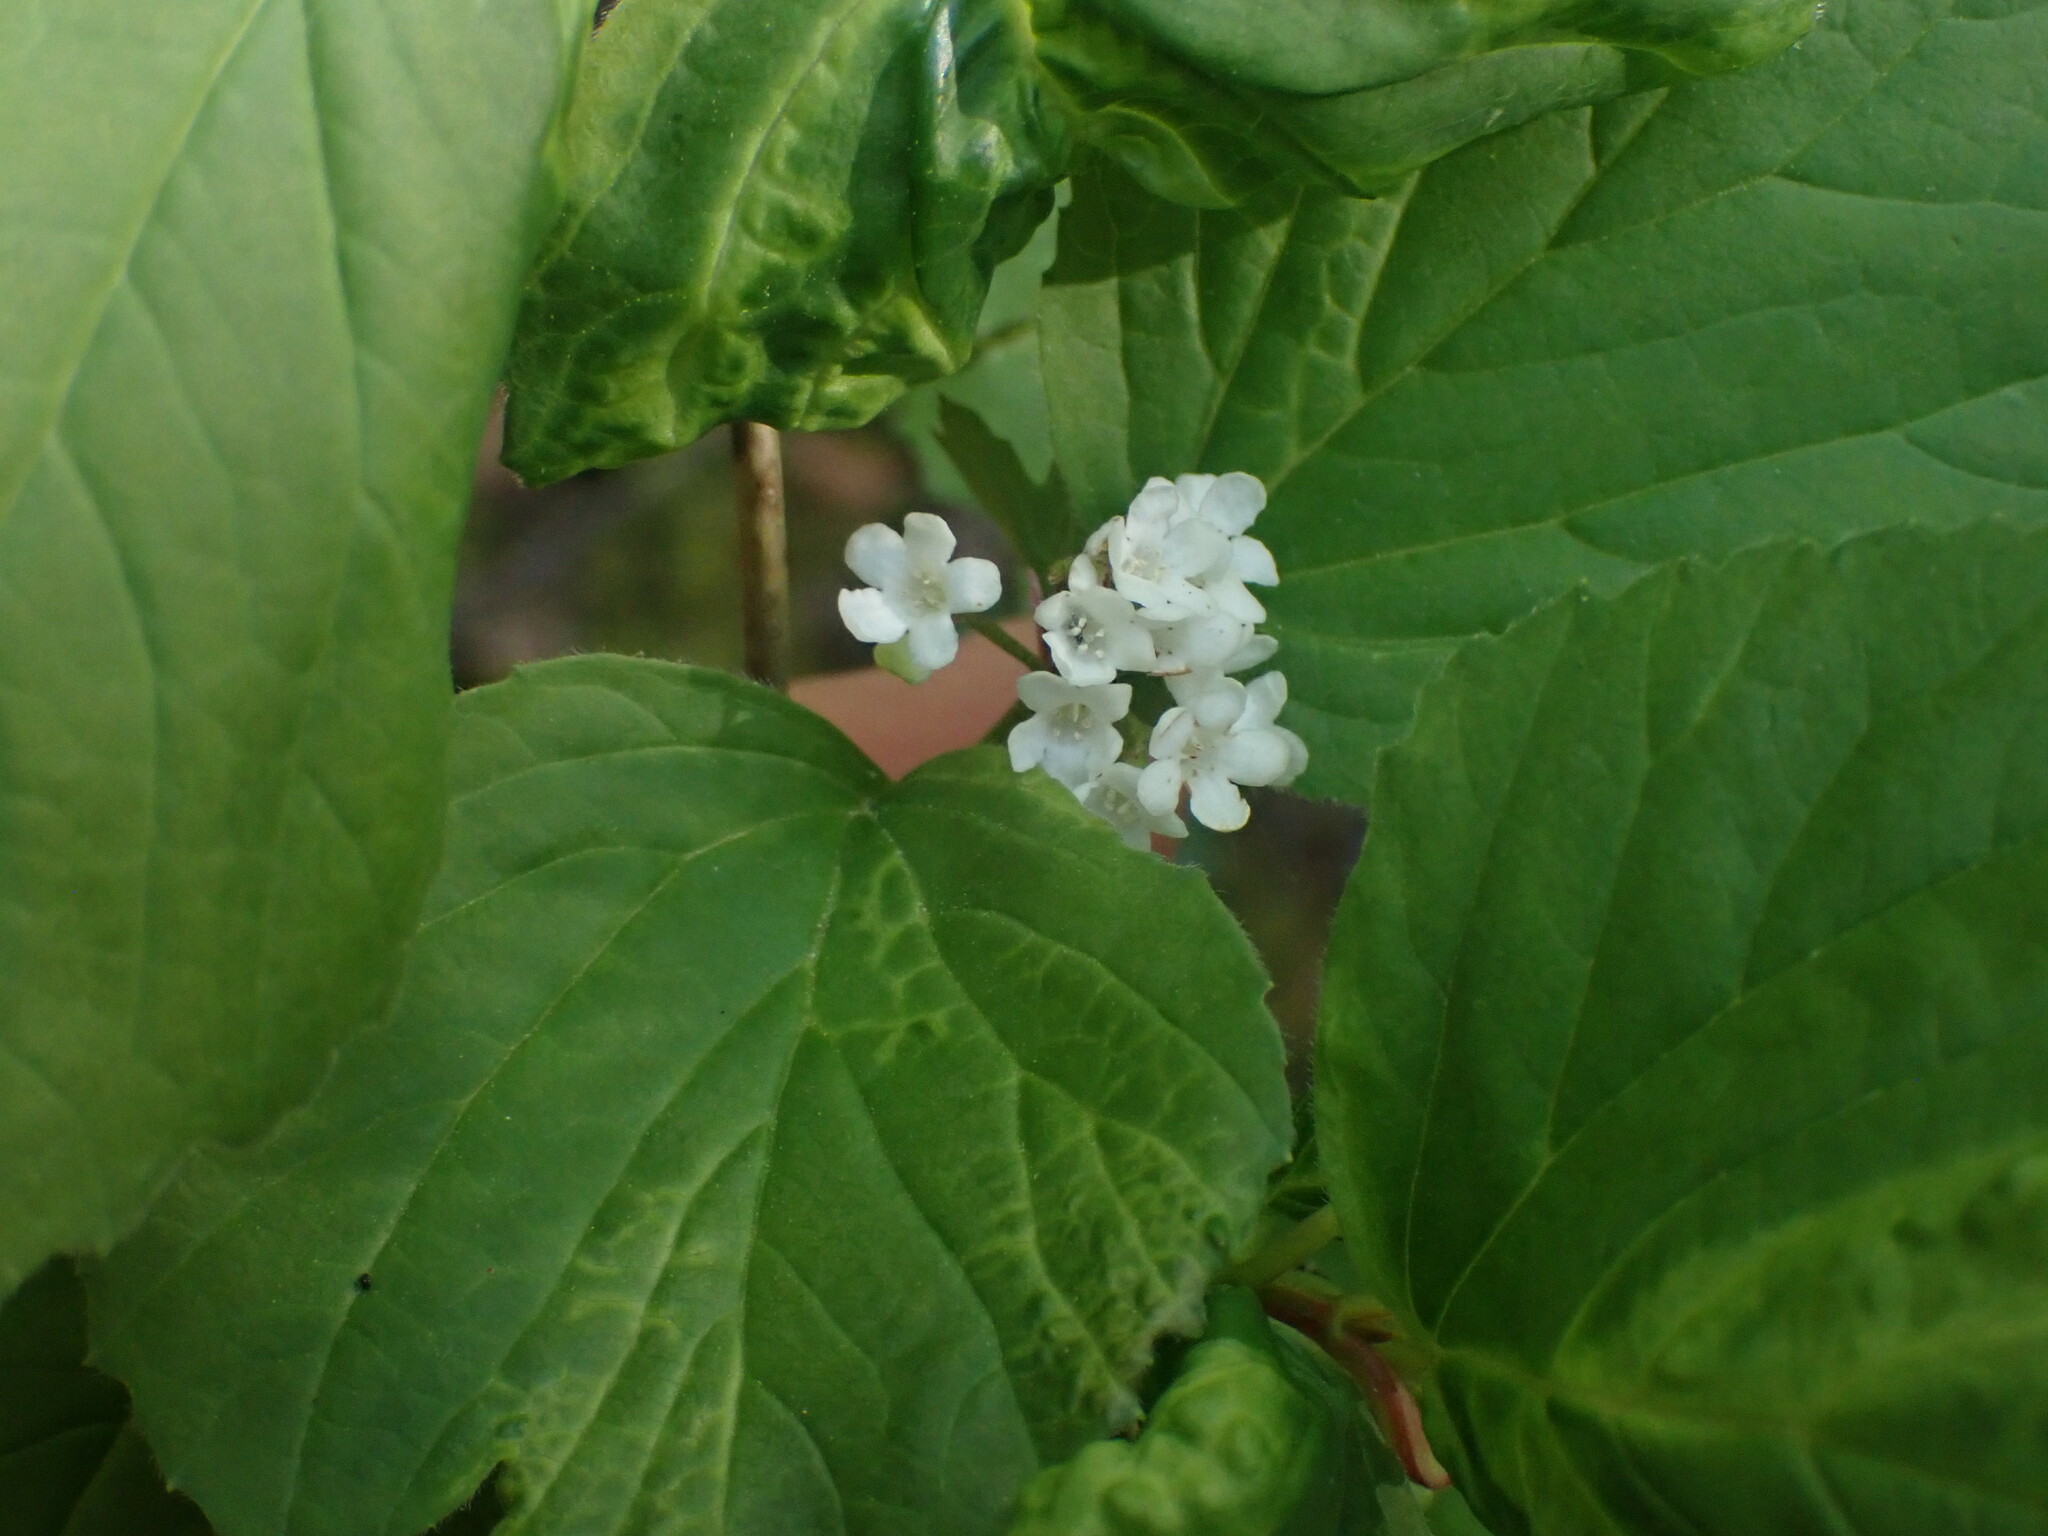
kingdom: Plantae
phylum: Tracheophyta
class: Magnoliopsida
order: Dipsacales
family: Viburnaceae
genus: Viburnum
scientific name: Viburnum edule
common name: Mooseberry
